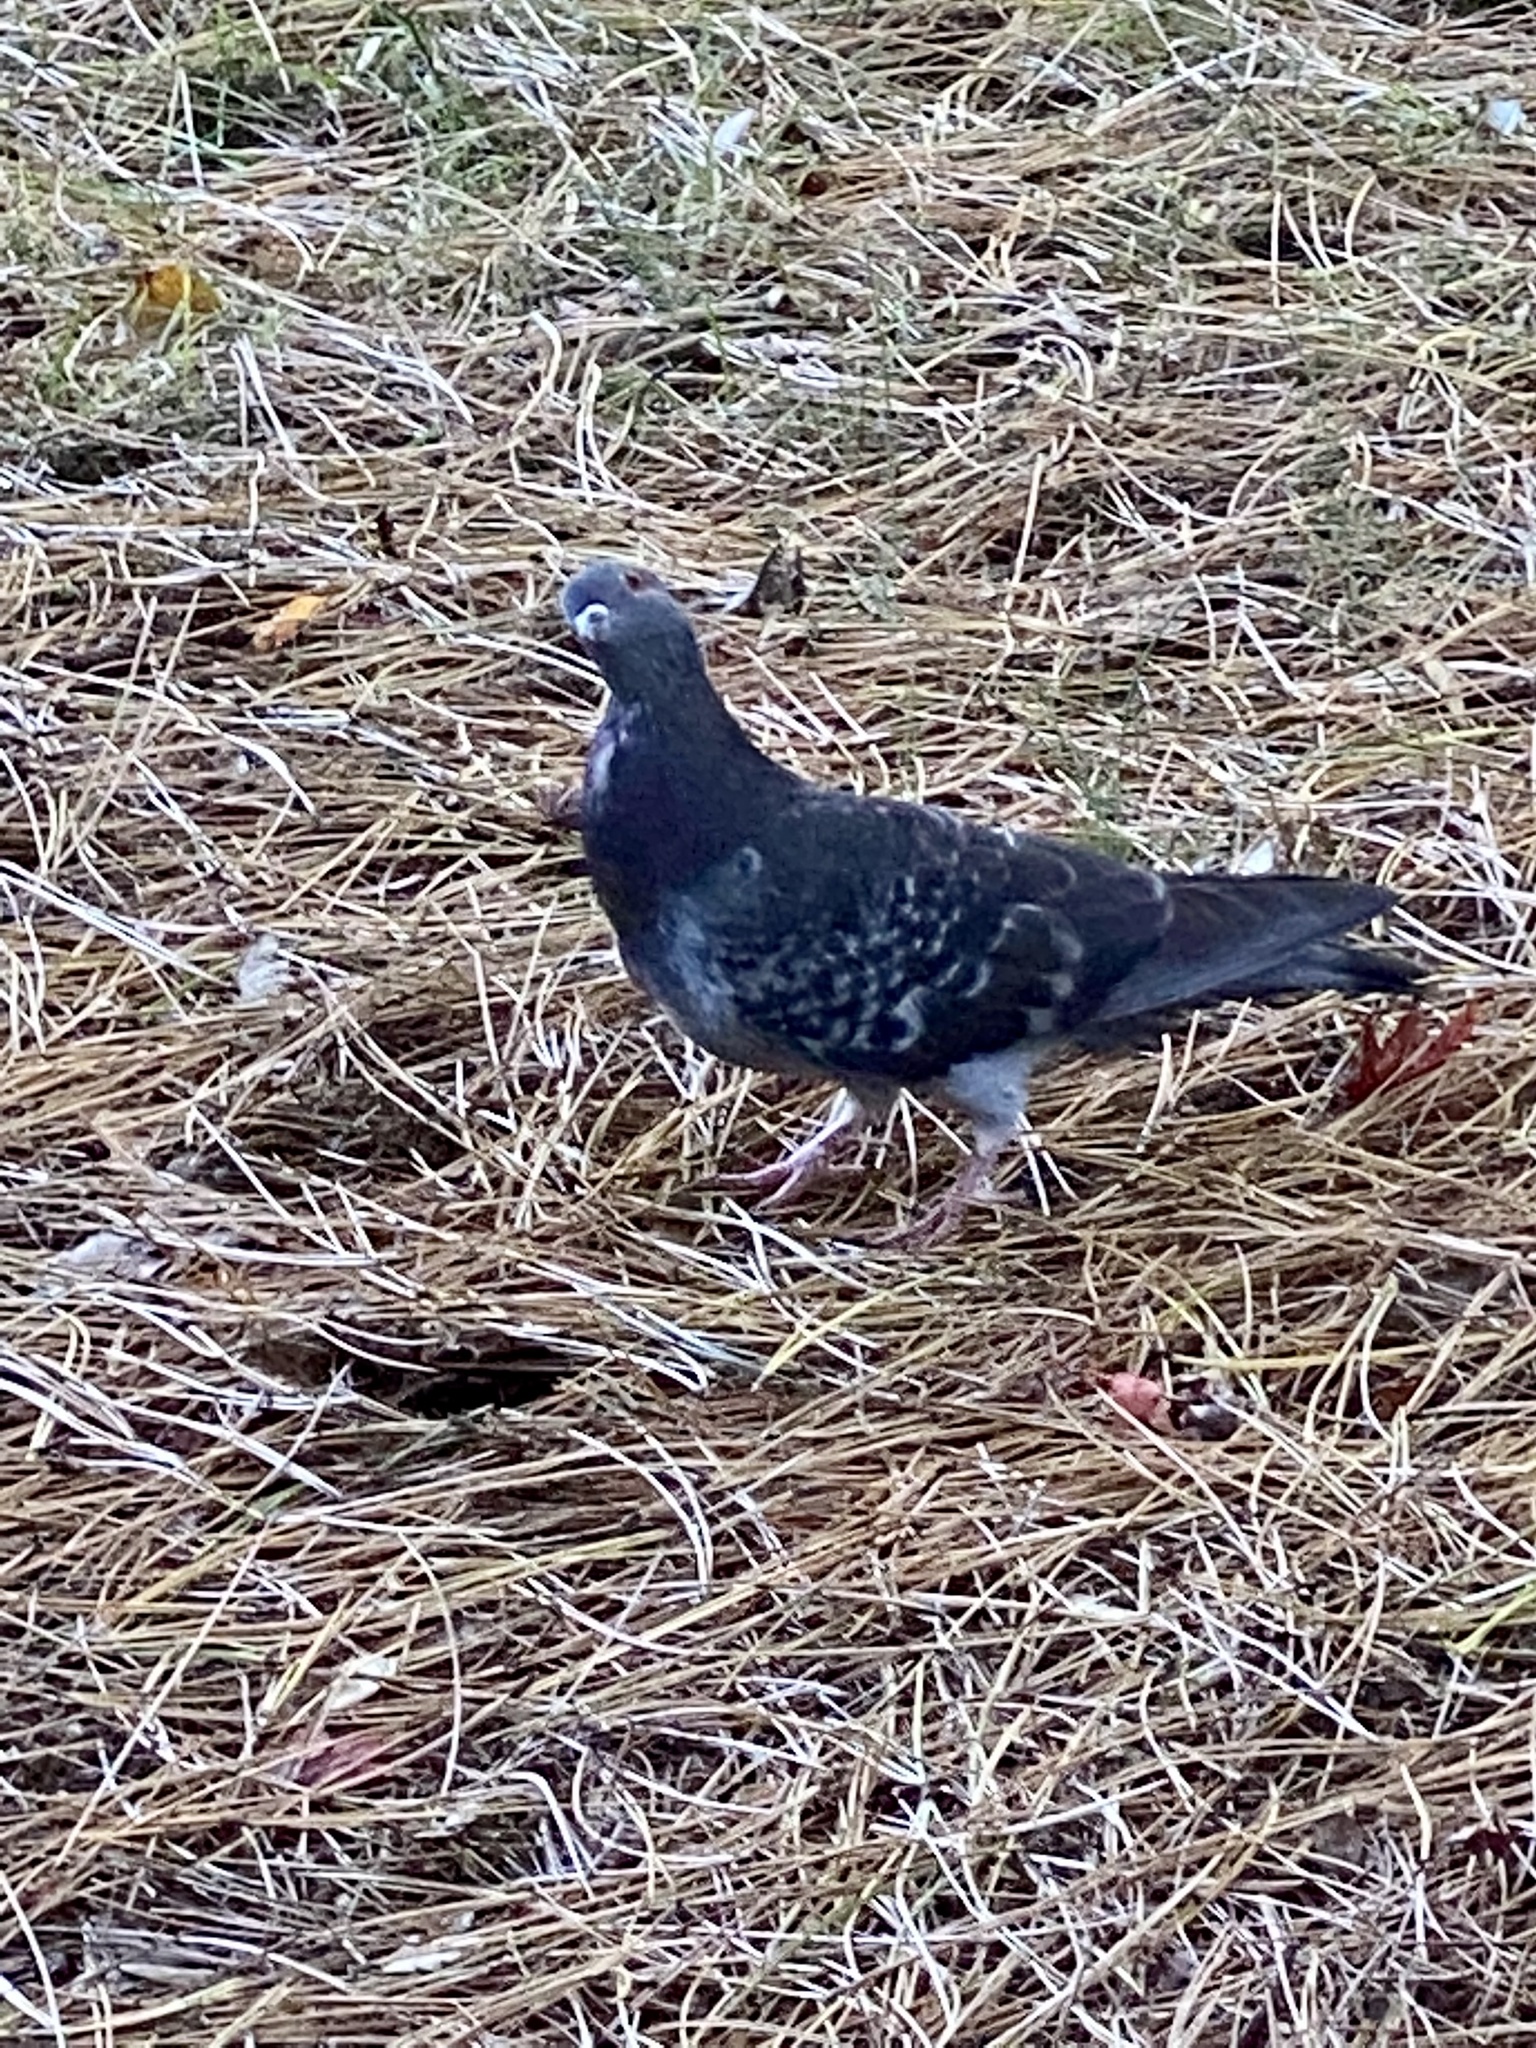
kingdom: Animalia
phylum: Chordata
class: Aves
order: Columbiformes
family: Columbidae
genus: Columba
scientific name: Columba livia
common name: Rock pigeon
